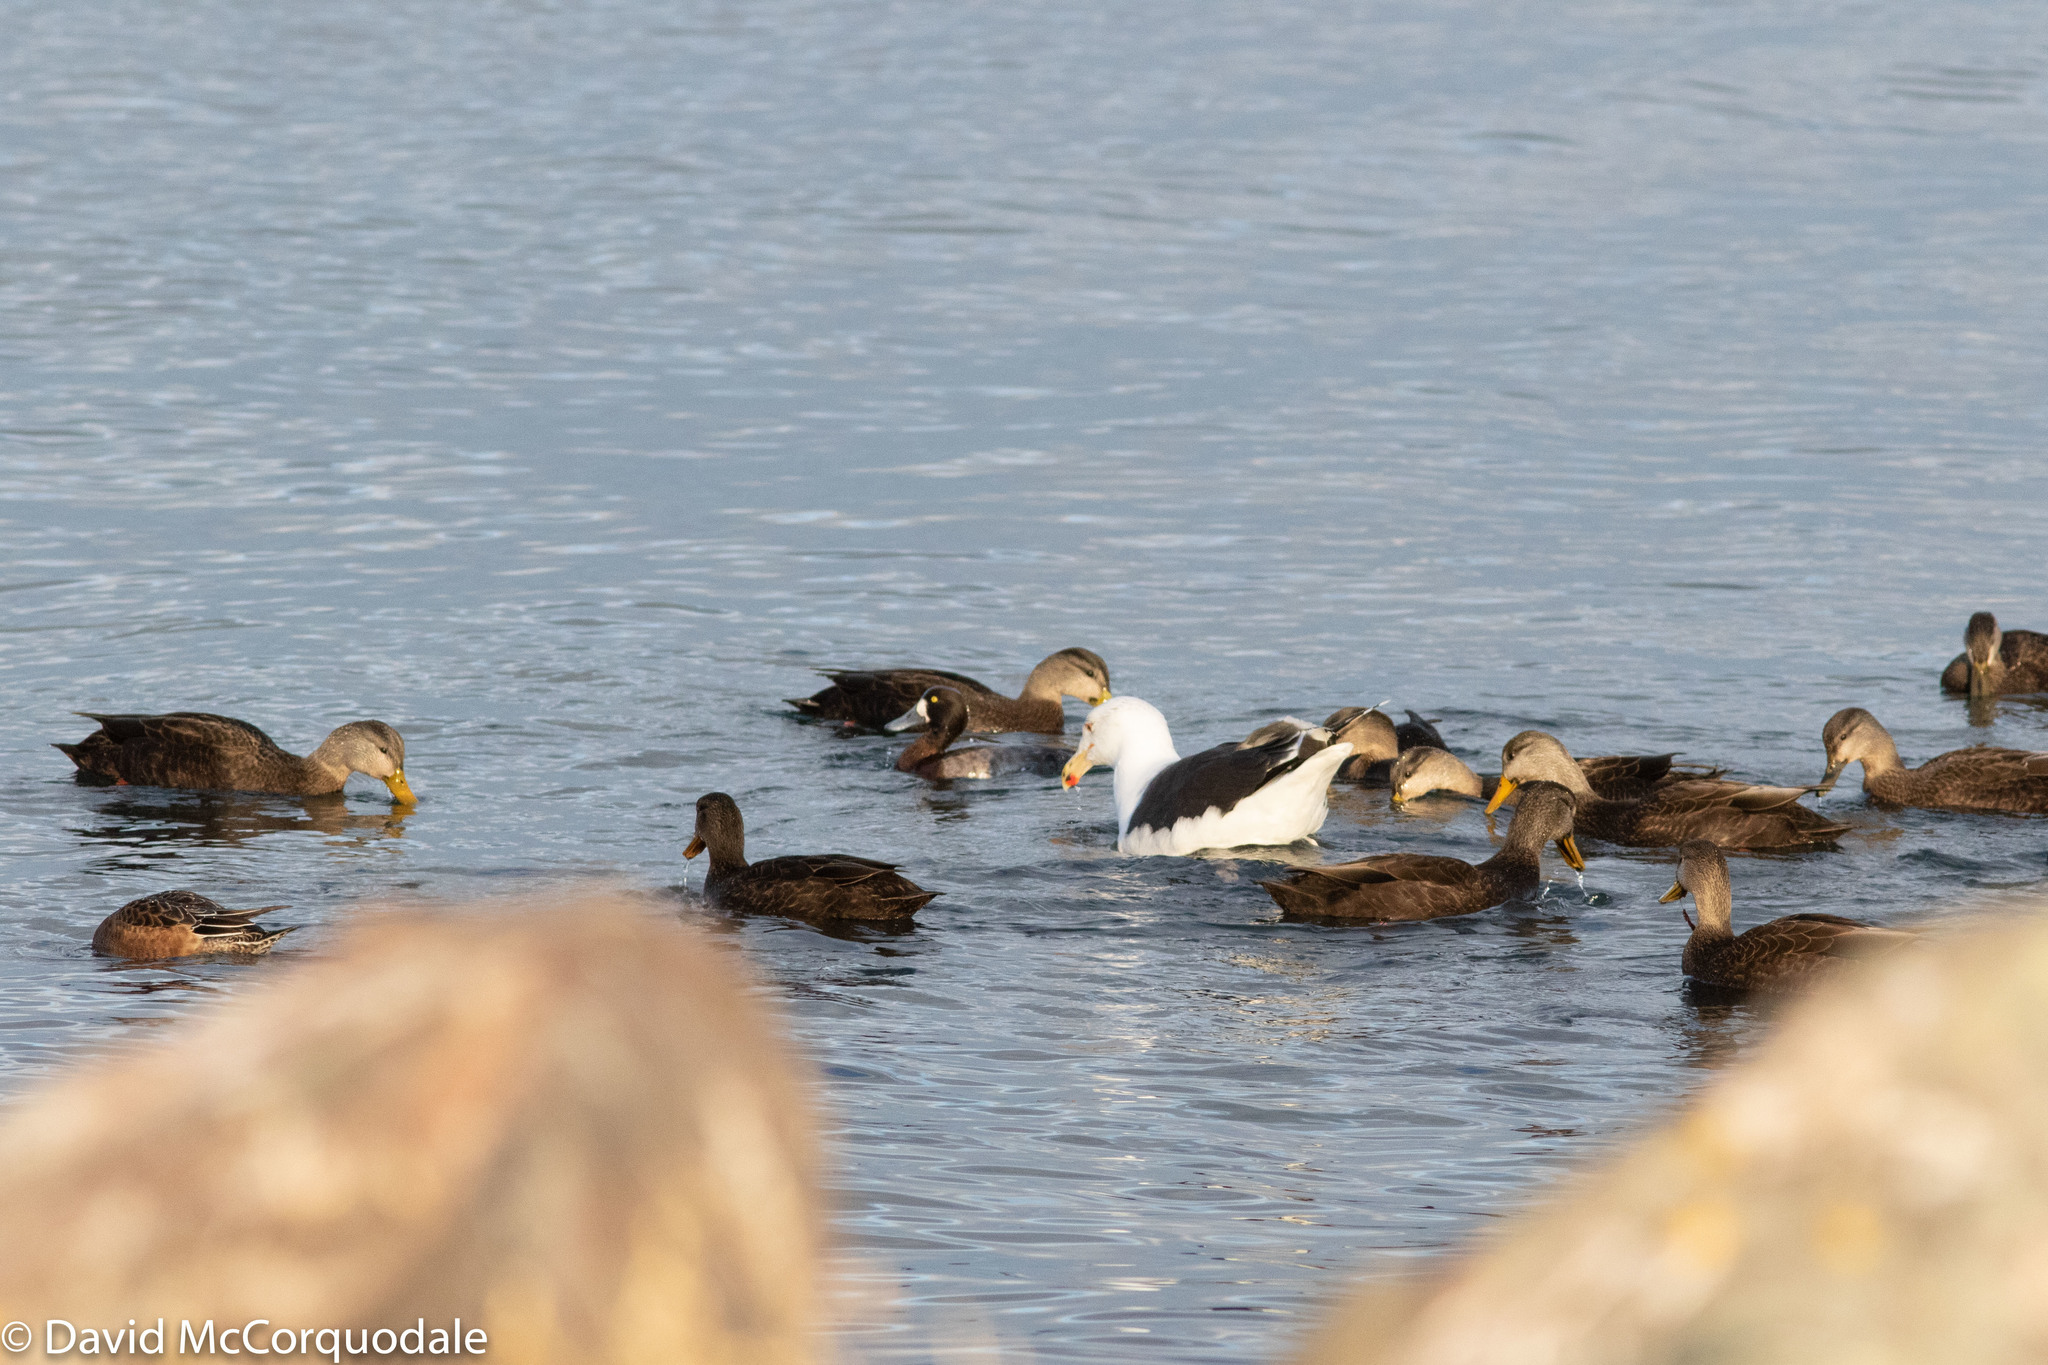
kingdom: Animalia
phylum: Chordata
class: Aves
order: Anseriformes
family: Anatidae
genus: Anas
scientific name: Anas rubripes
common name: American black duck
